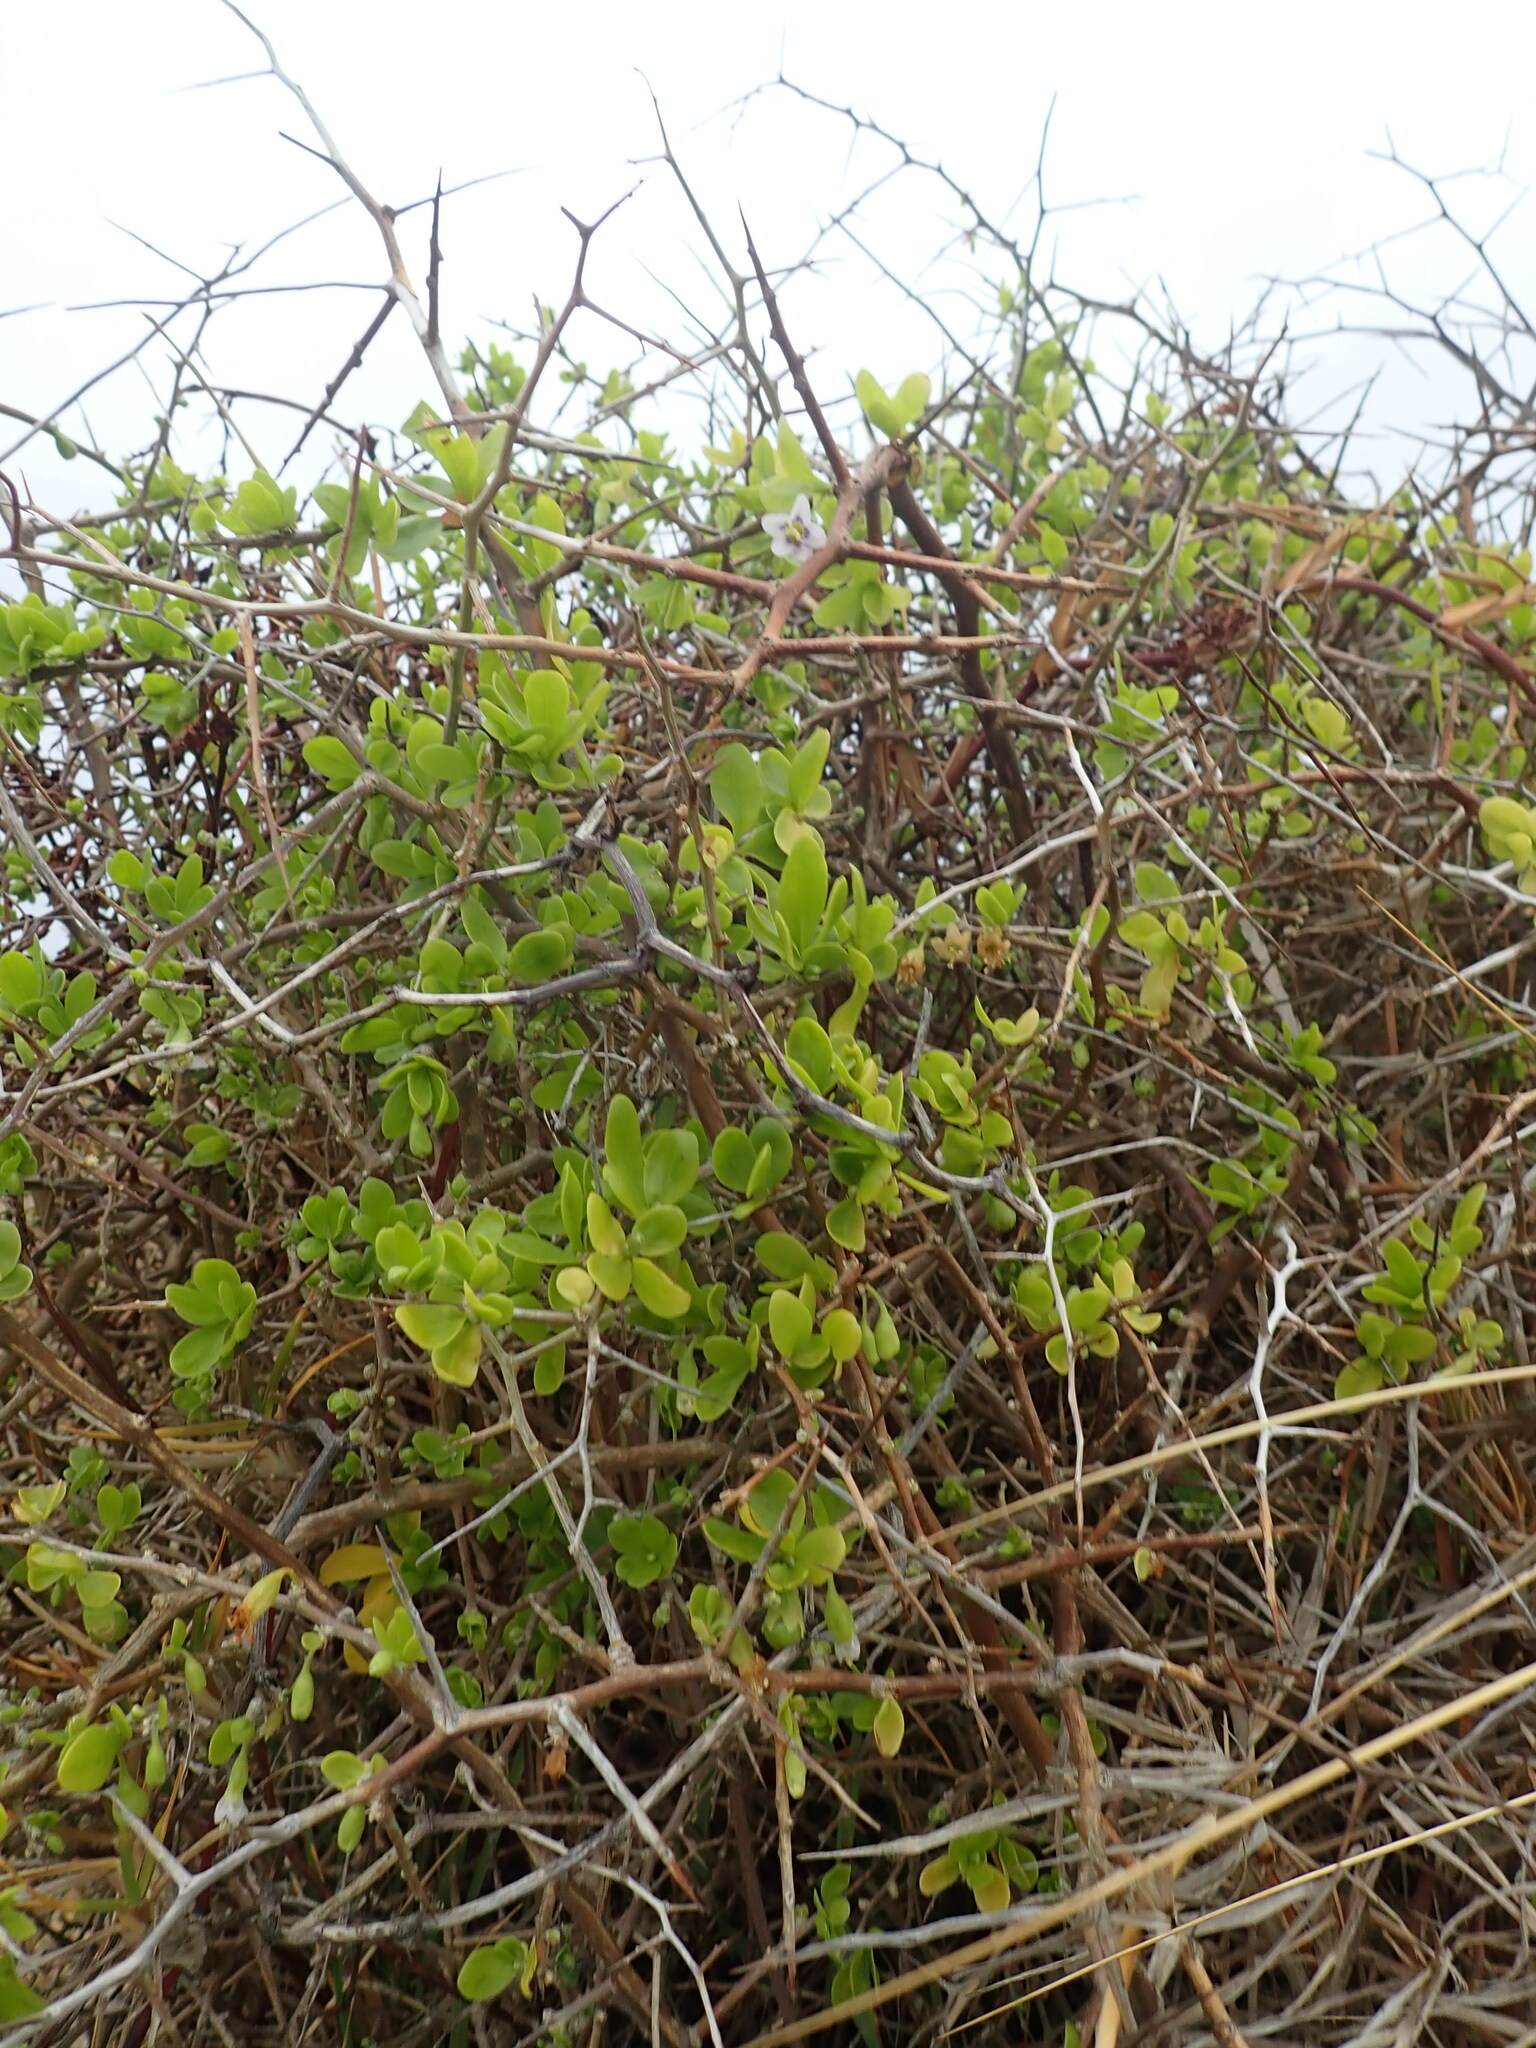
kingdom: Plantae
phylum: Tracheophyta
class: Magnoliopsida
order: Solanales
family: Solanaceae
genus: Lycium
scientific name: Lycium ferocissimum
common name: African boxthorn
